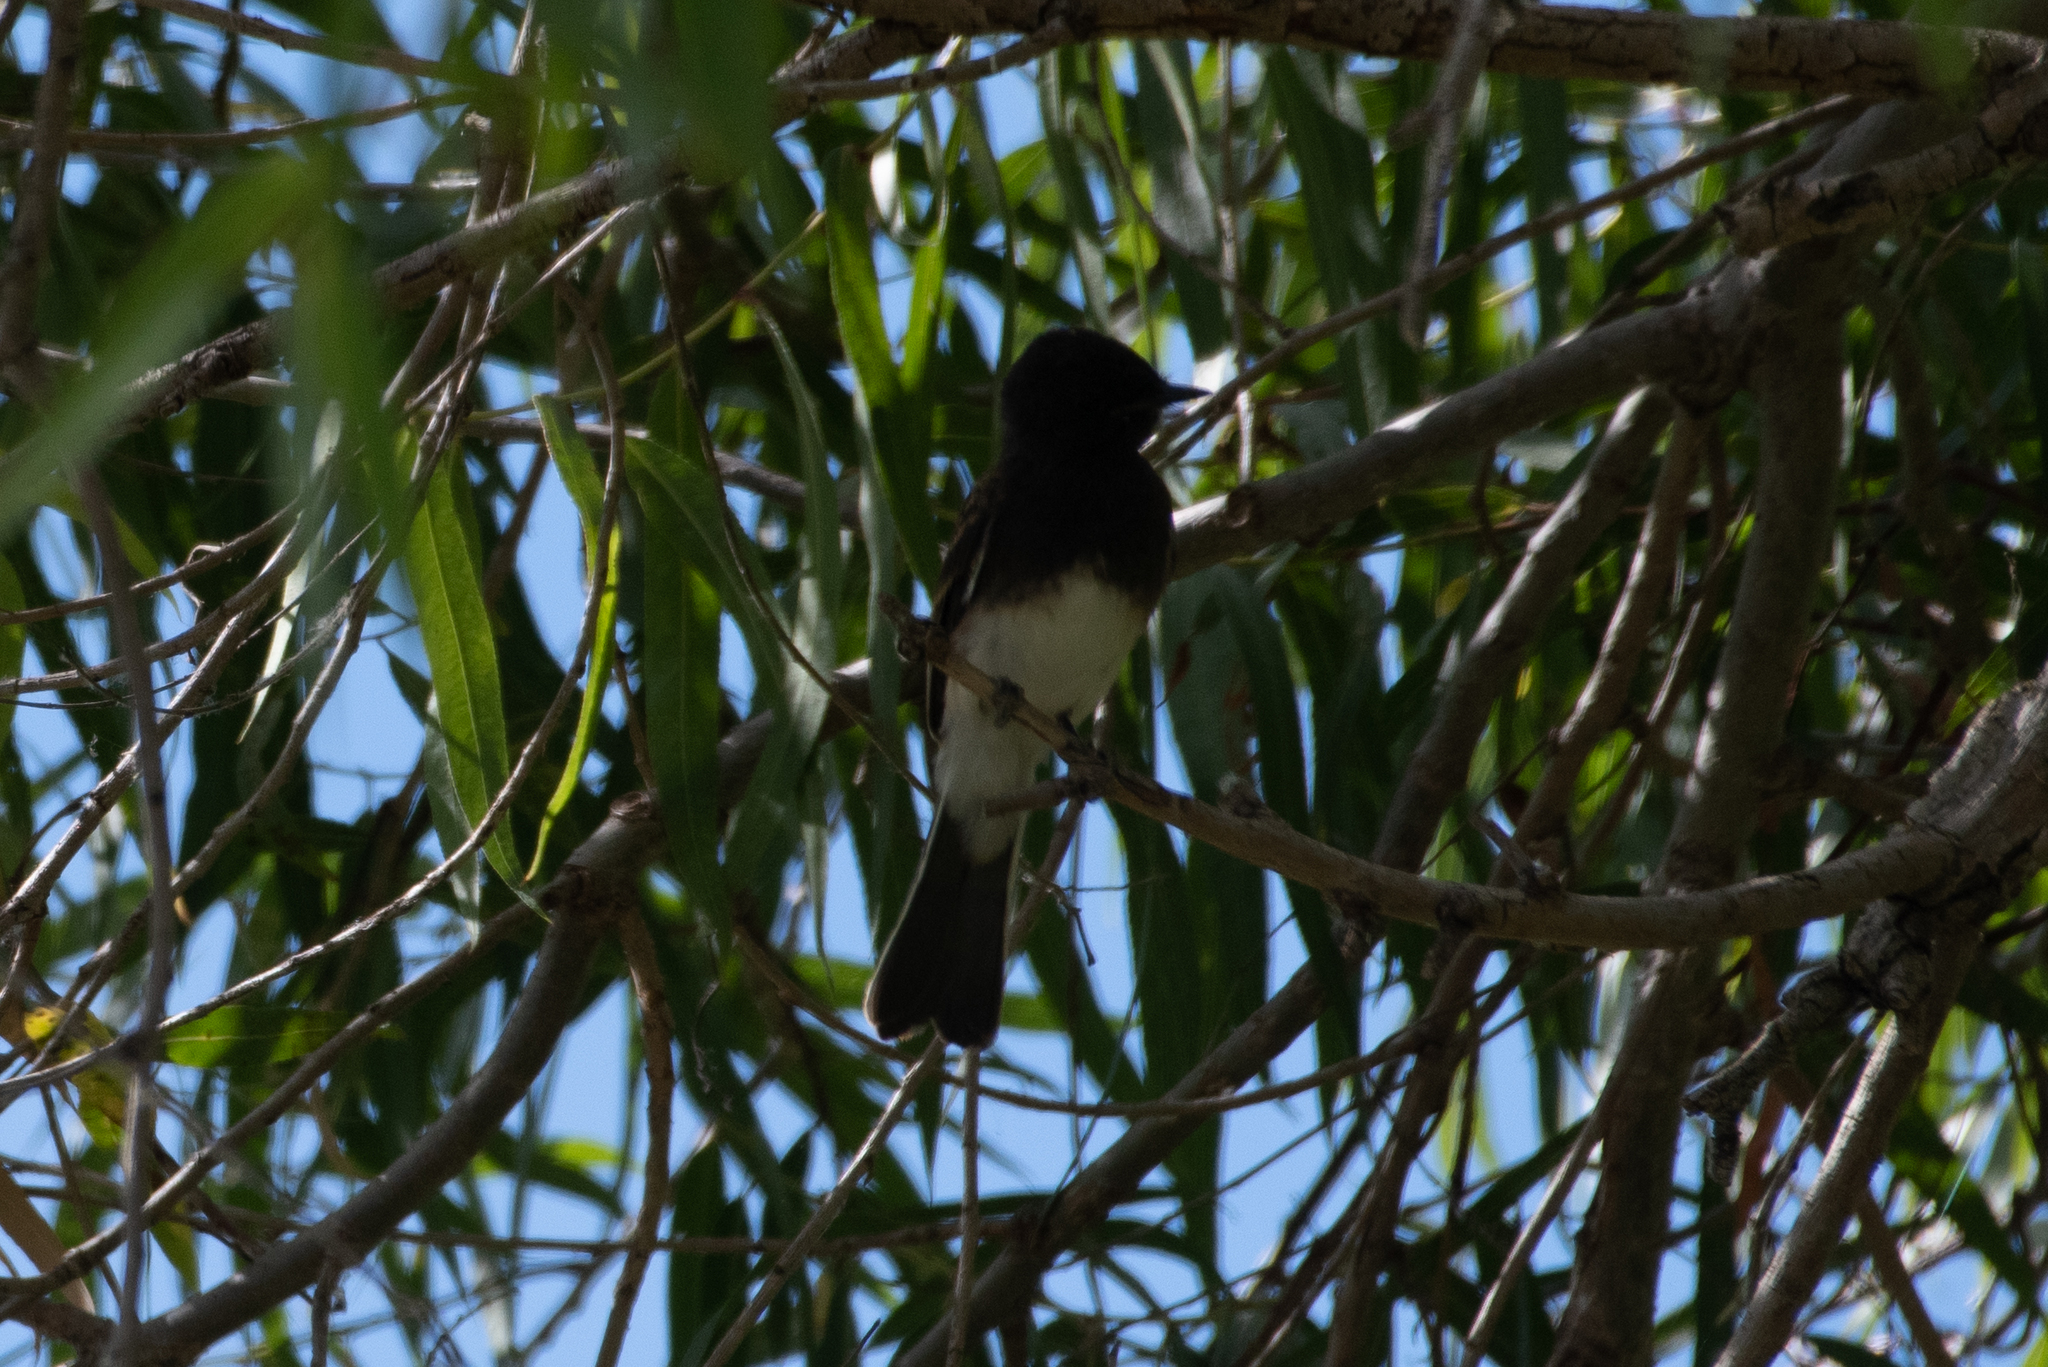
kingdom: Animalia
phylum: Chordata
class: Aves
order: Passeriformes
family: Tyrannidae
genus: Sayornis
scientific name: Sayornis nigricans
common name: Black phoebe
